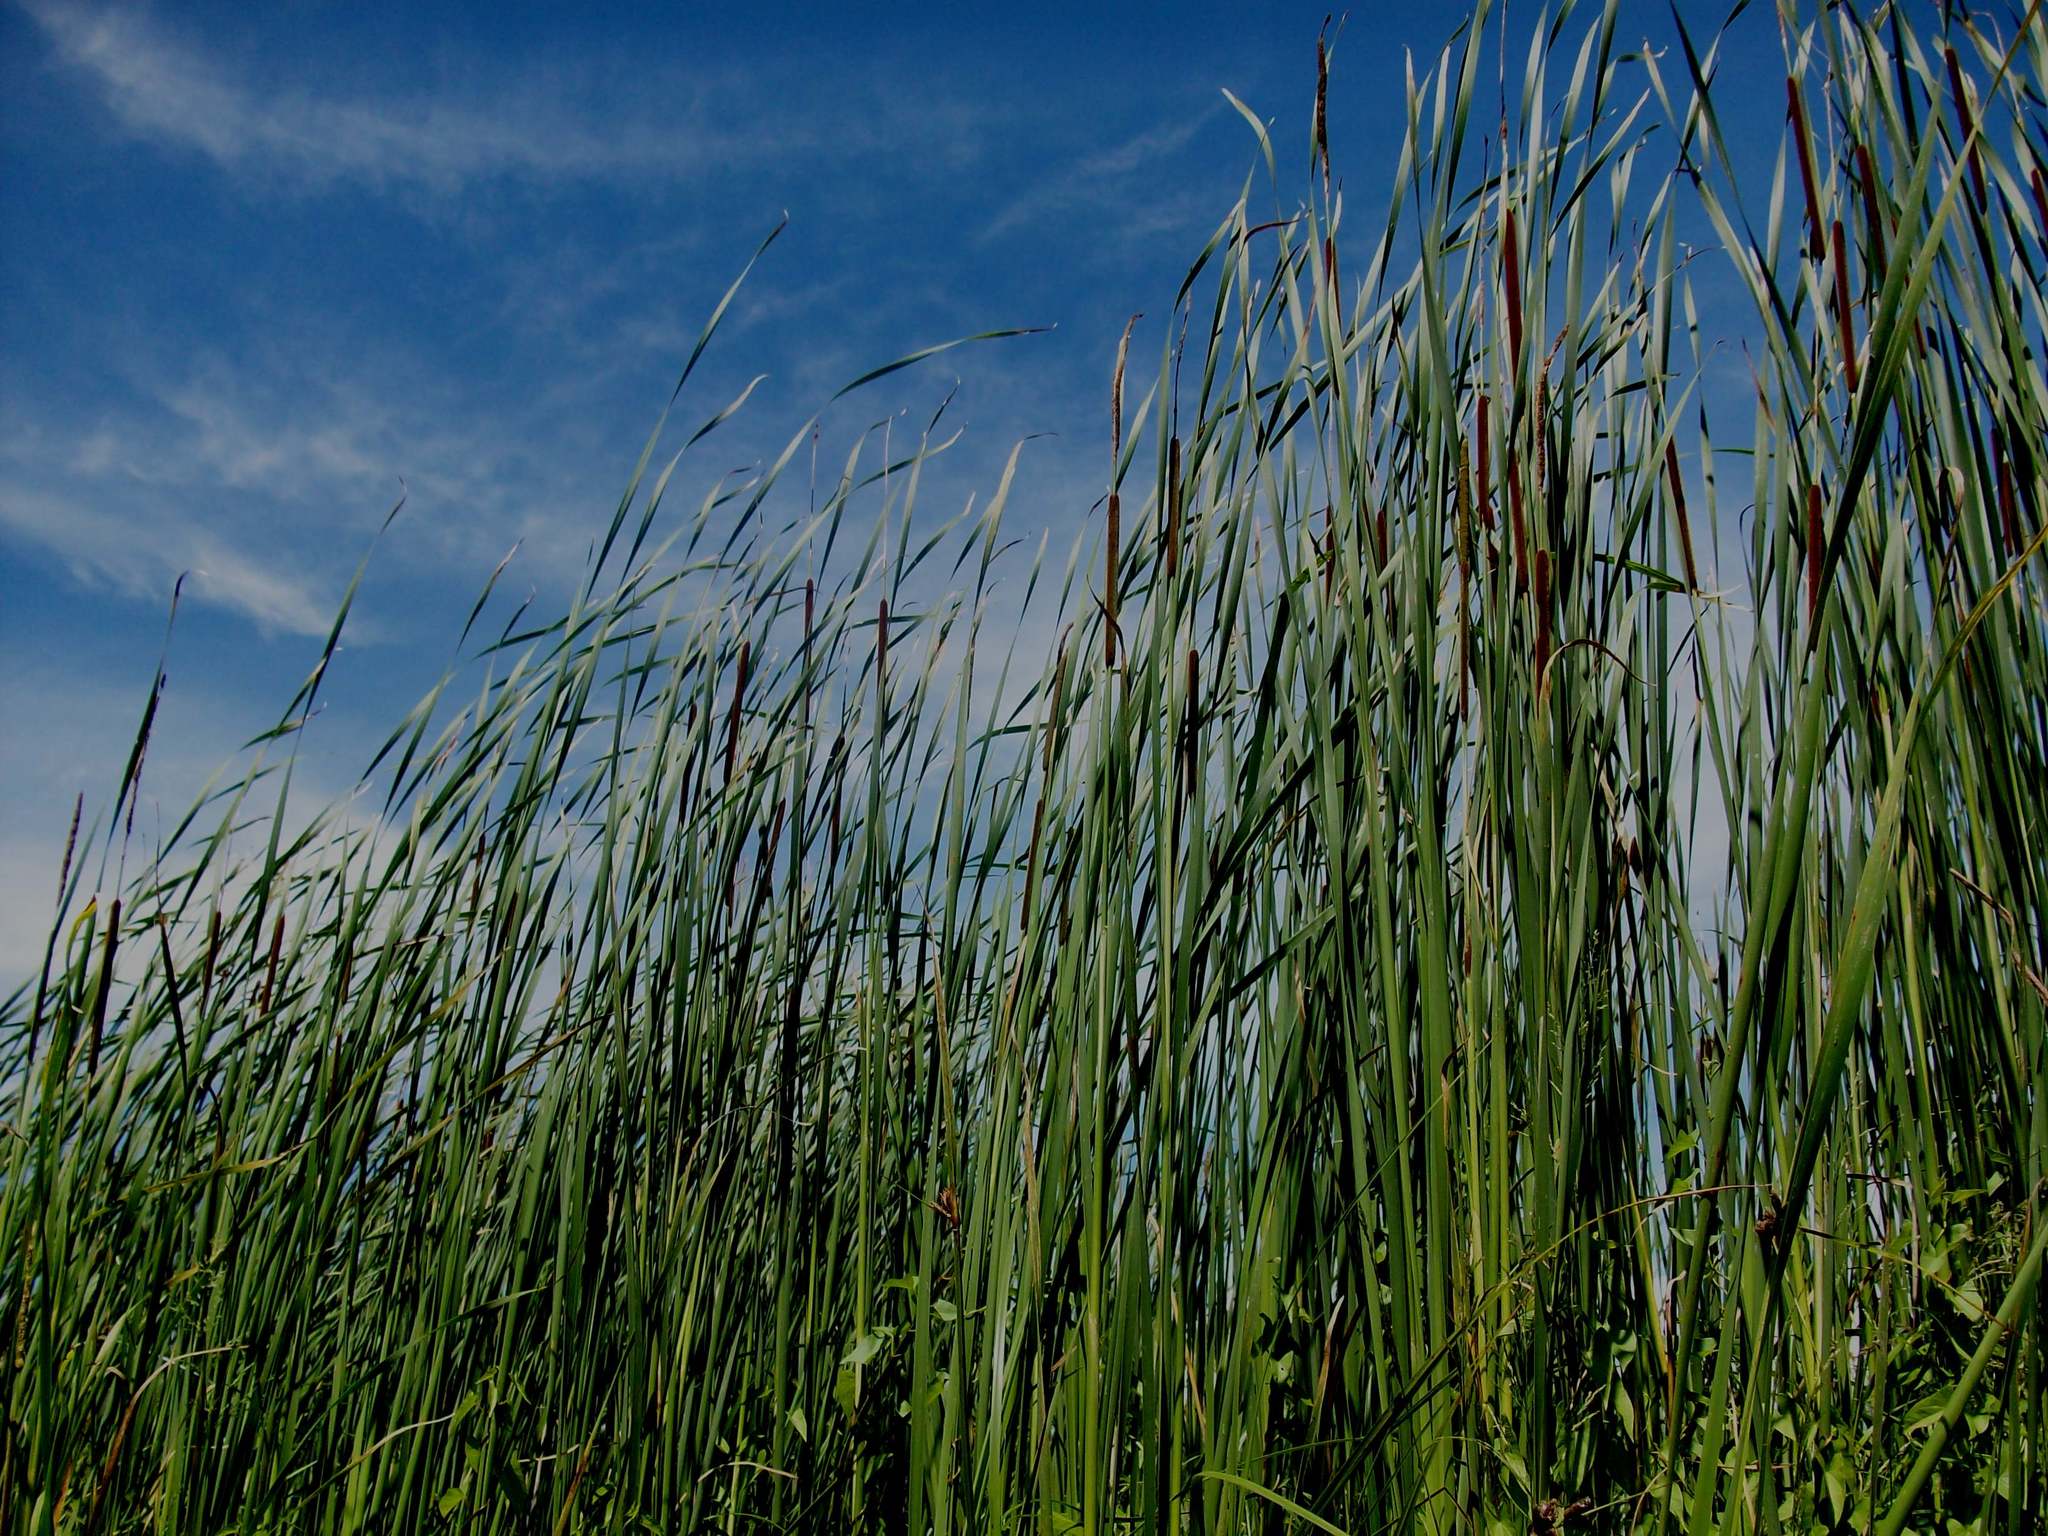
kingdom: Plantae
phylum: Tracheophyta
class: Liliopsida
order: Poales
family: Typhaceae
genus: Typha
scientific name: Typha angustifolia
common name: Lesser bulrush
